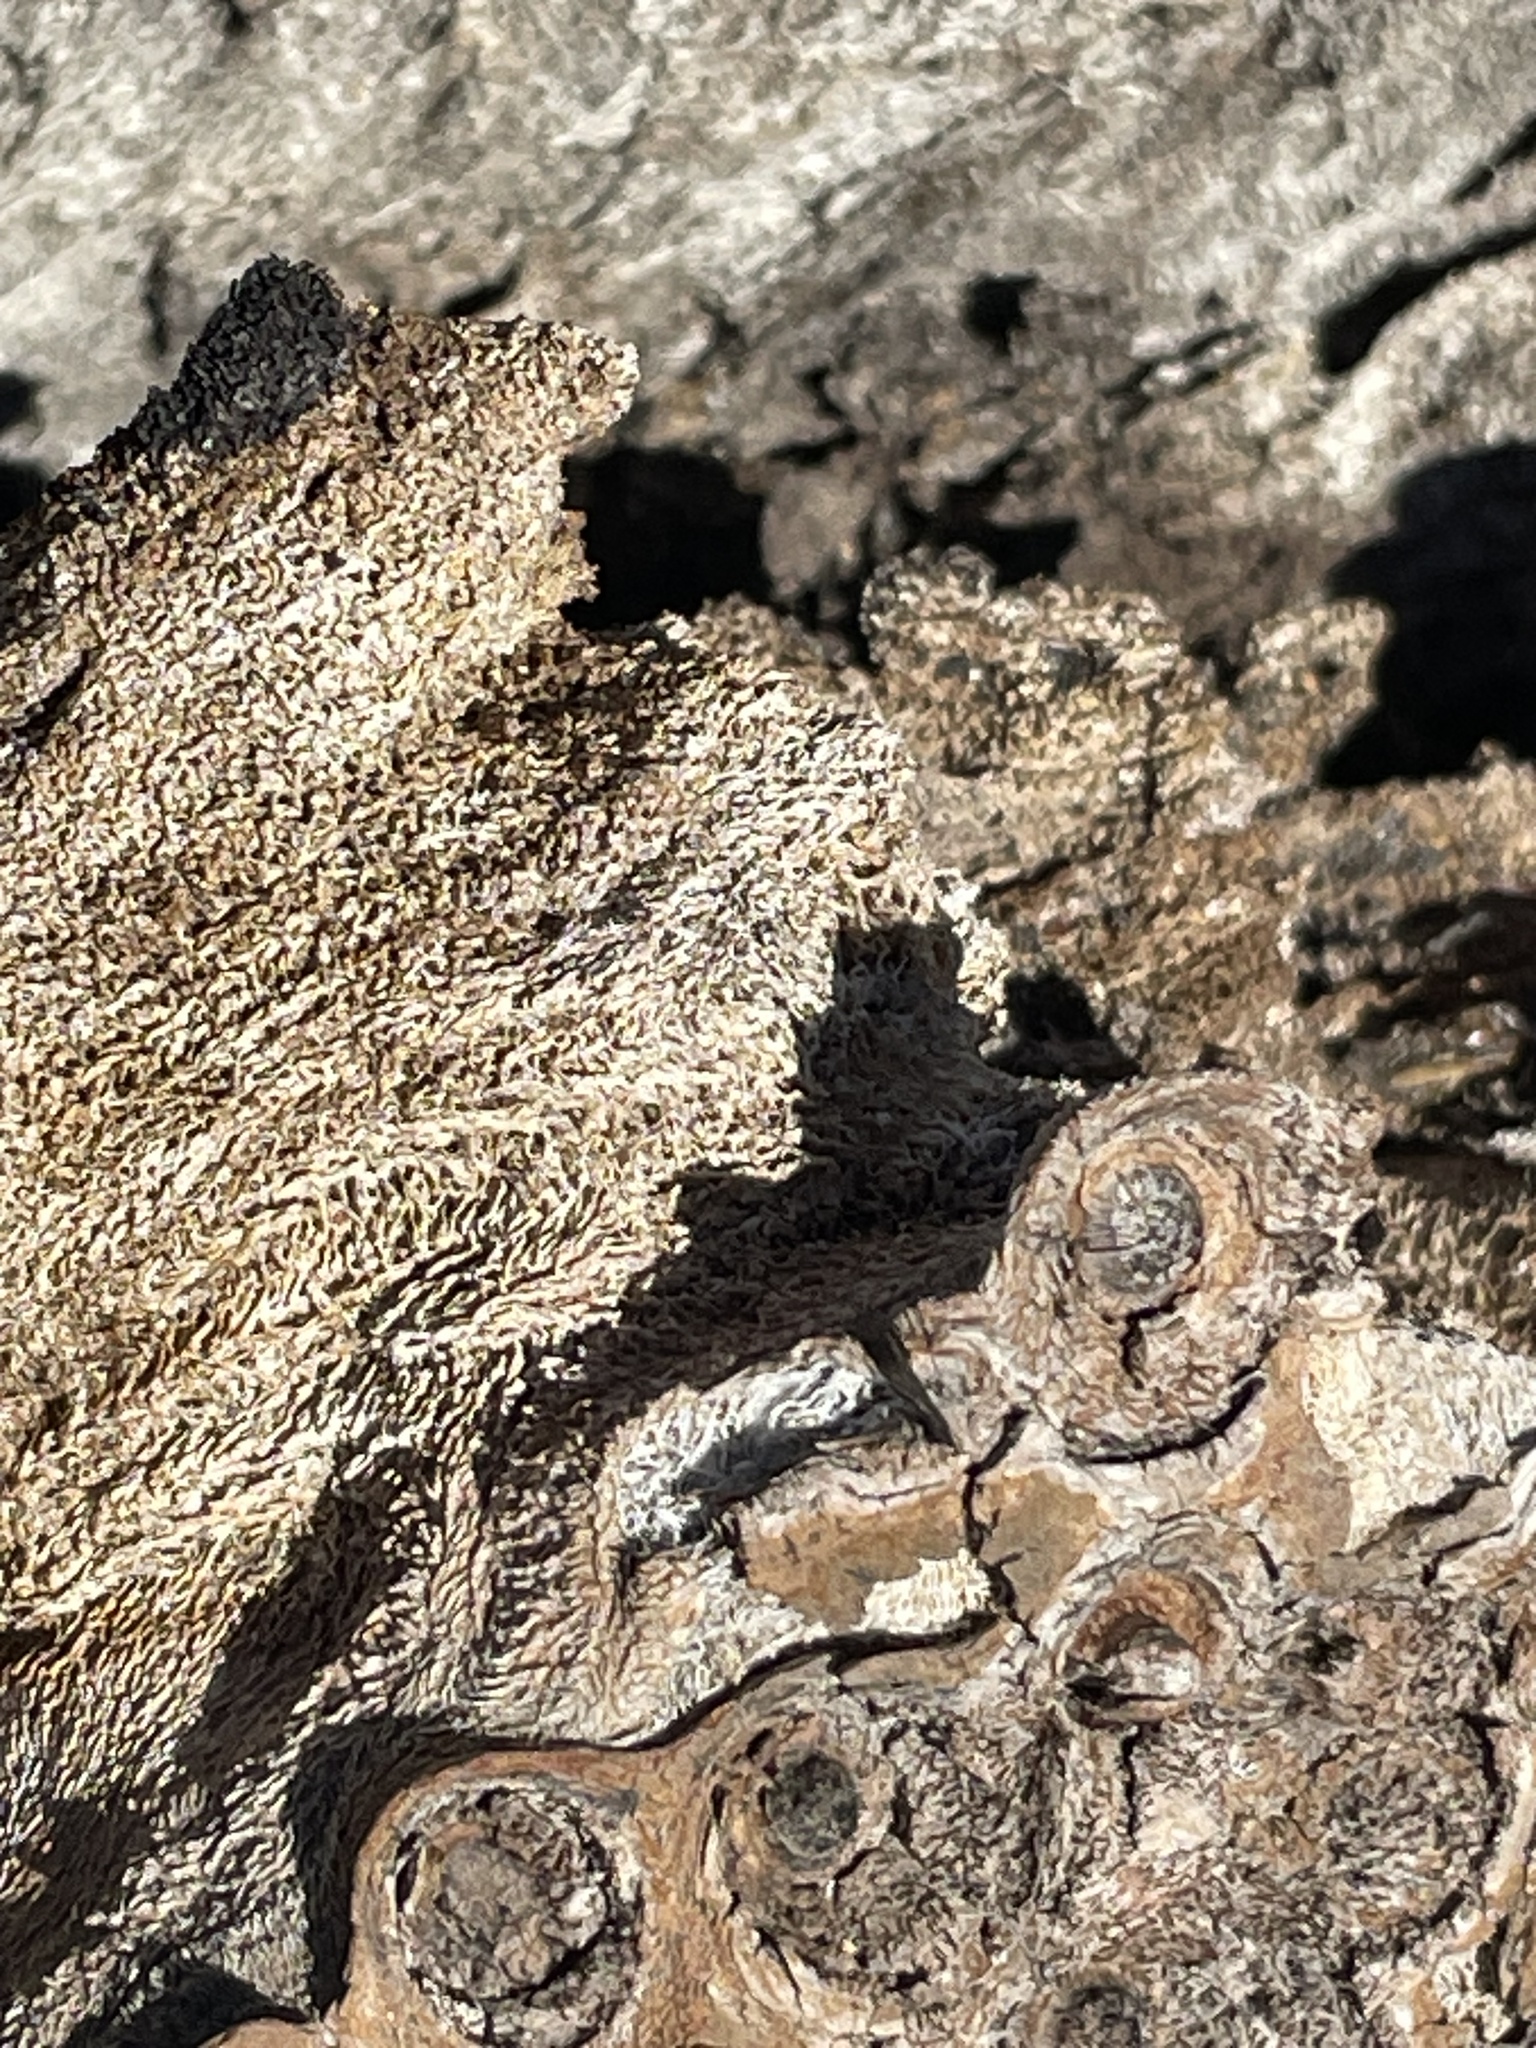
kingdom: Plantae
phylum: Tracheophyta
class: Liliopsida
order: Asparagales
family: Asparagaceae
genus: Yucca
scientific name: Yucca brevifolia
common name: Joshua tree
